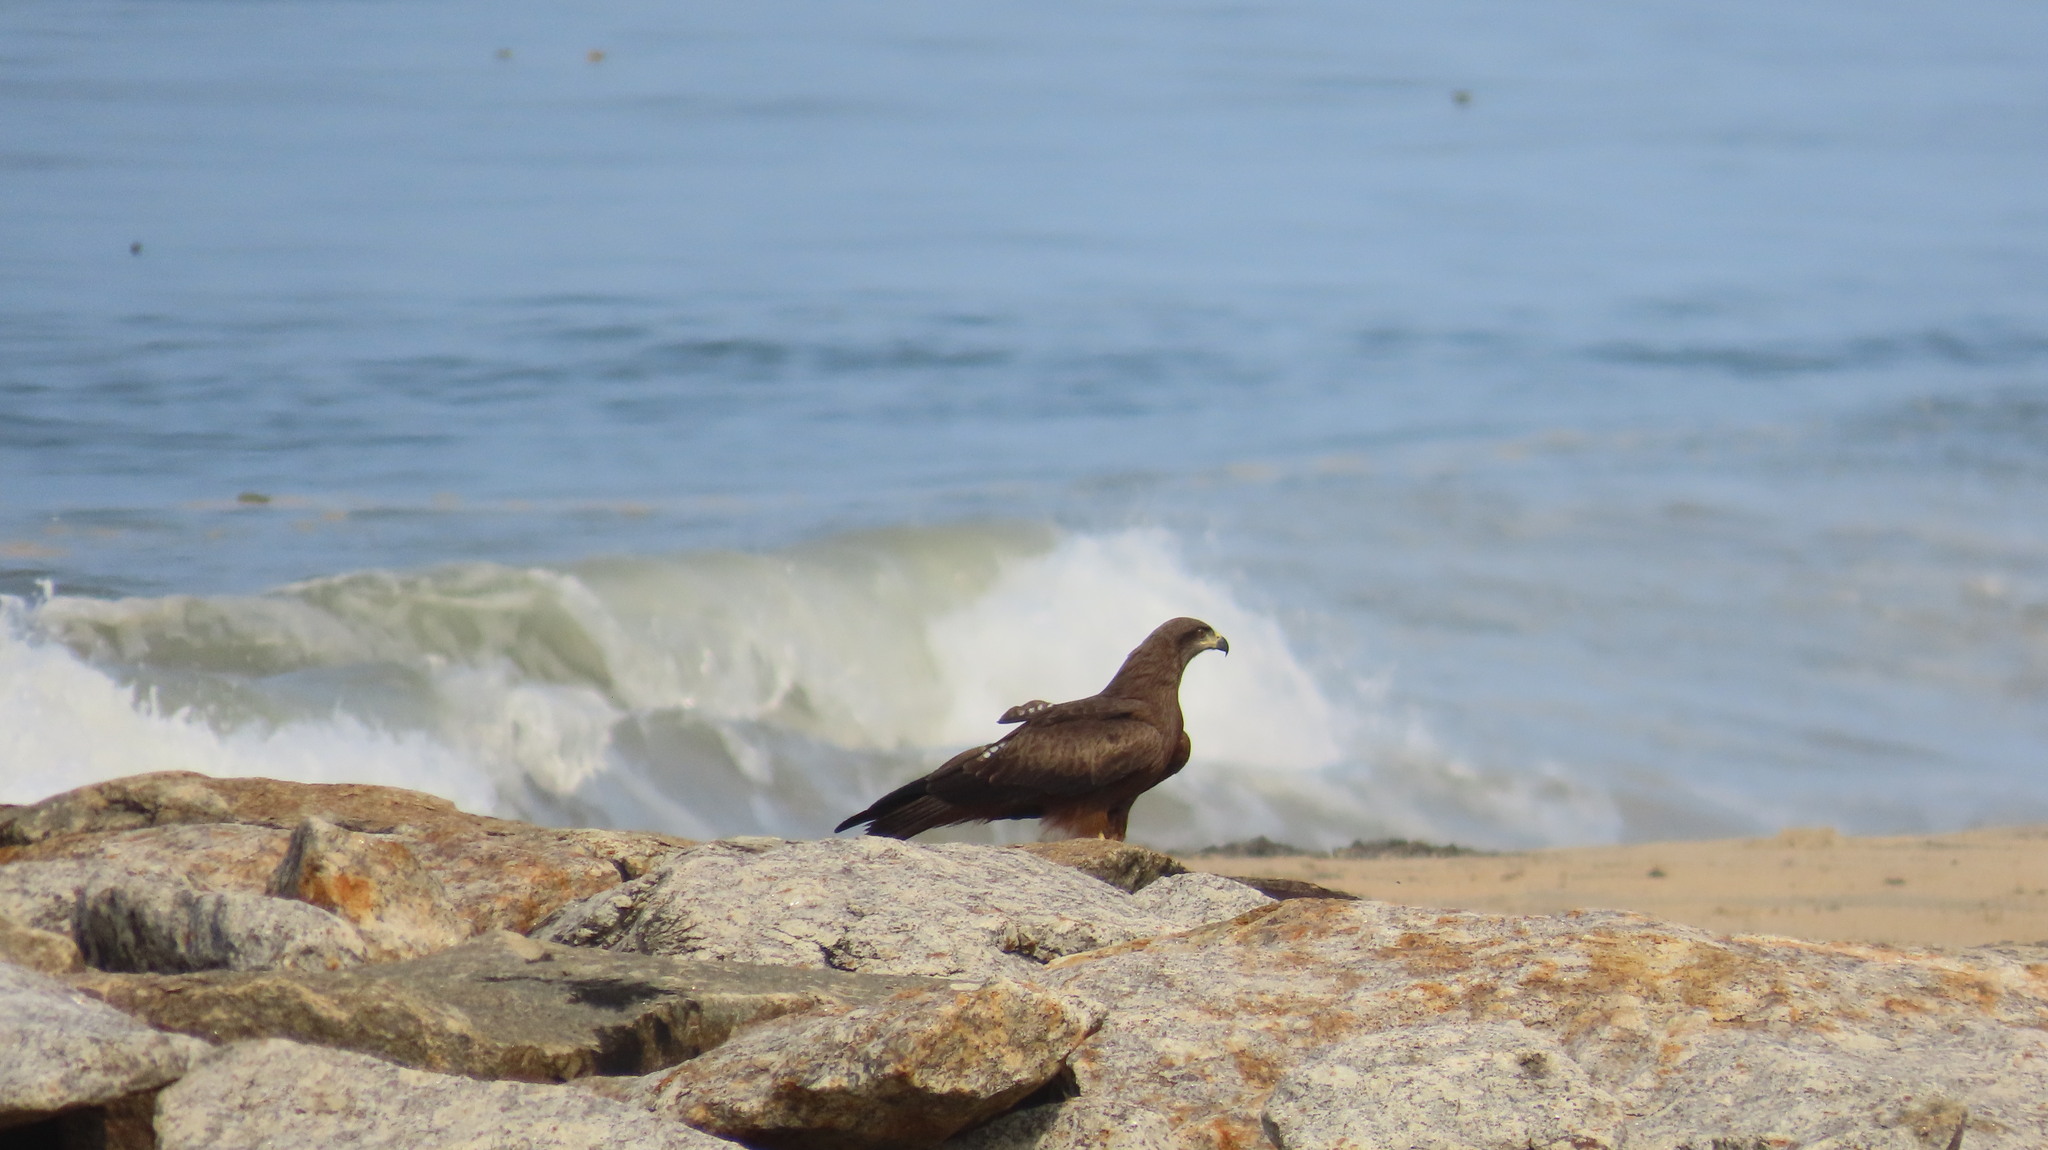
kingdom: Animalia
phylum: Chordata
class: Aves
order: Accipitriformes
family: Accipitridae
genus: Milvus
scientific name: Milvus migrans
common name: Black kite
